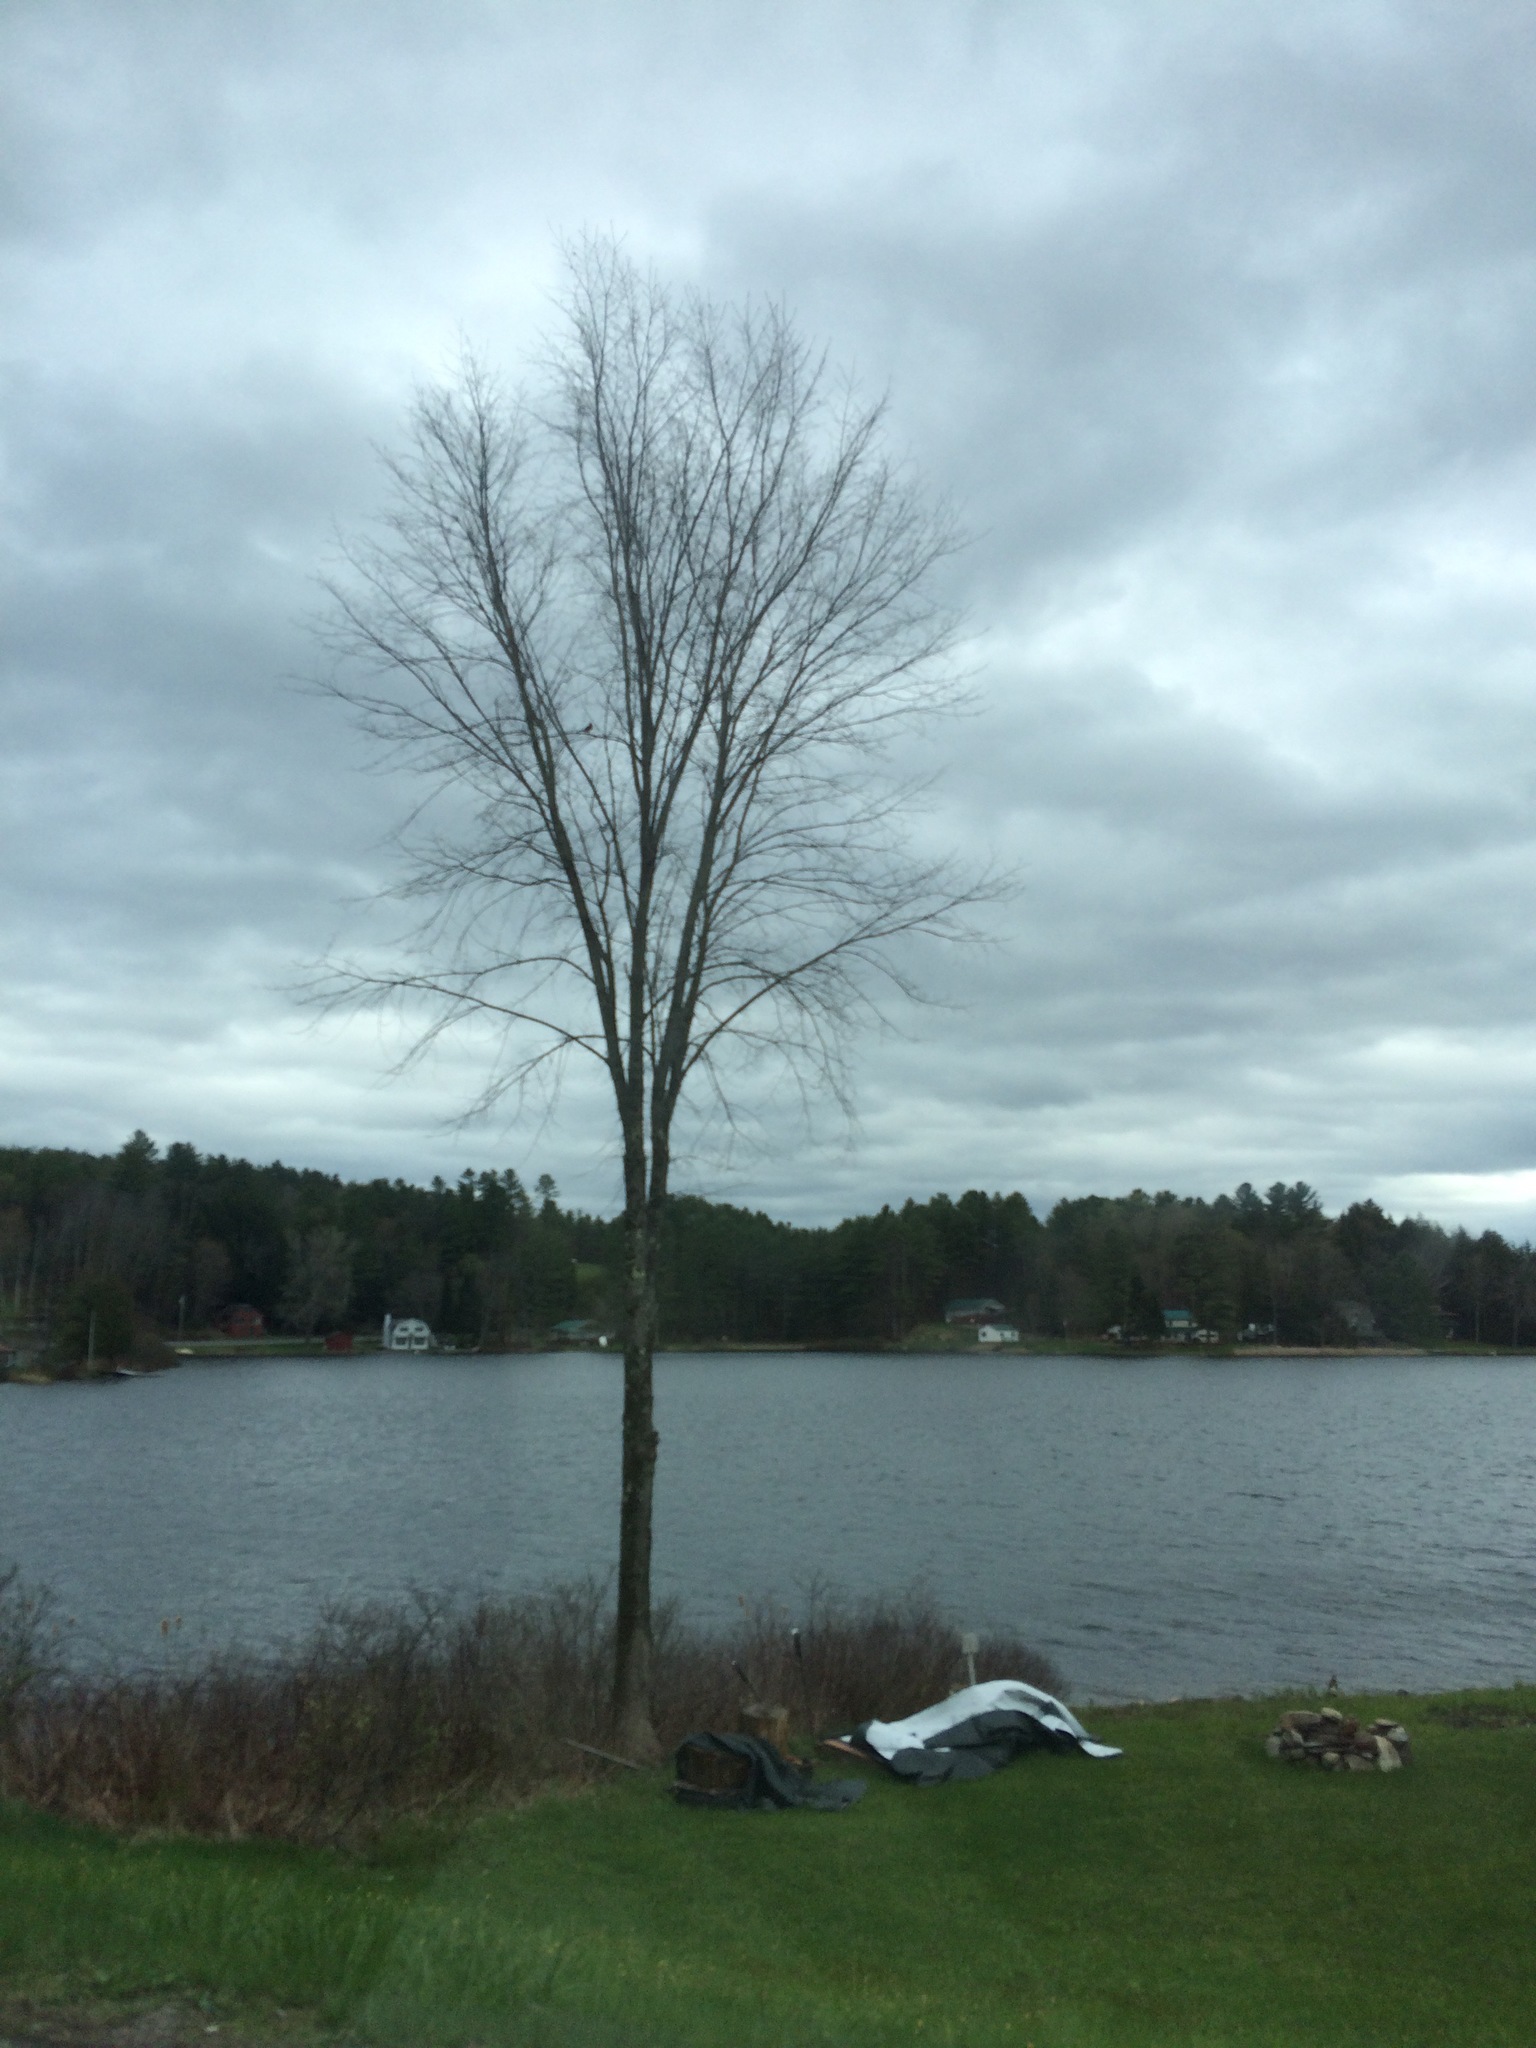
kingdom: Plantae
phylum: Tracheophyta
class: Magnoliopsida
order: Rosales
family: Ulmaceae
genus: Ulmus
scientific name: Ulmus americana
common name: American elm
